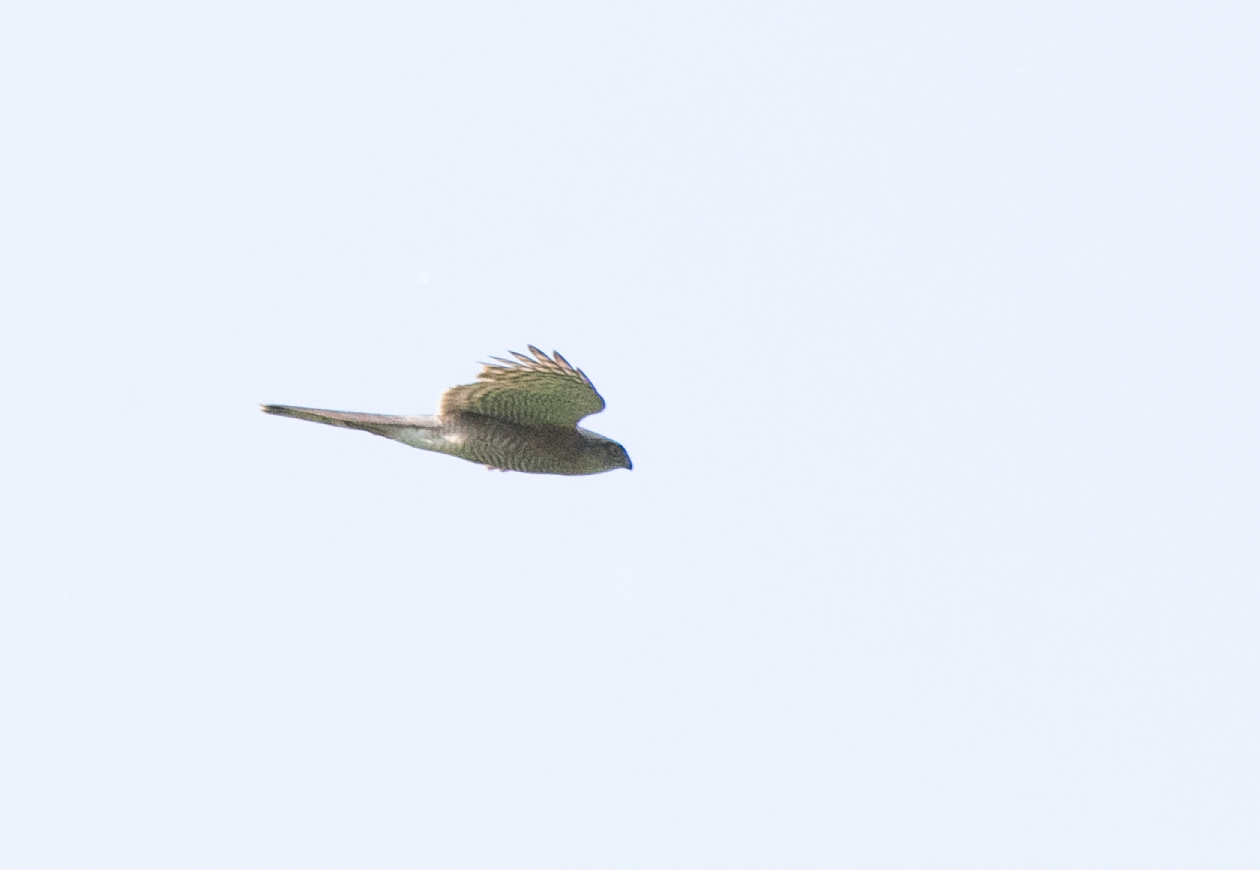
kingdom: Animalia
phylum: Chordata
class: Aves
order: Accipitriformes
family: Accipitridae
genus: Accipiter
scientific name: Accipiter nisus
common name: Eurasian sparrowhawk
